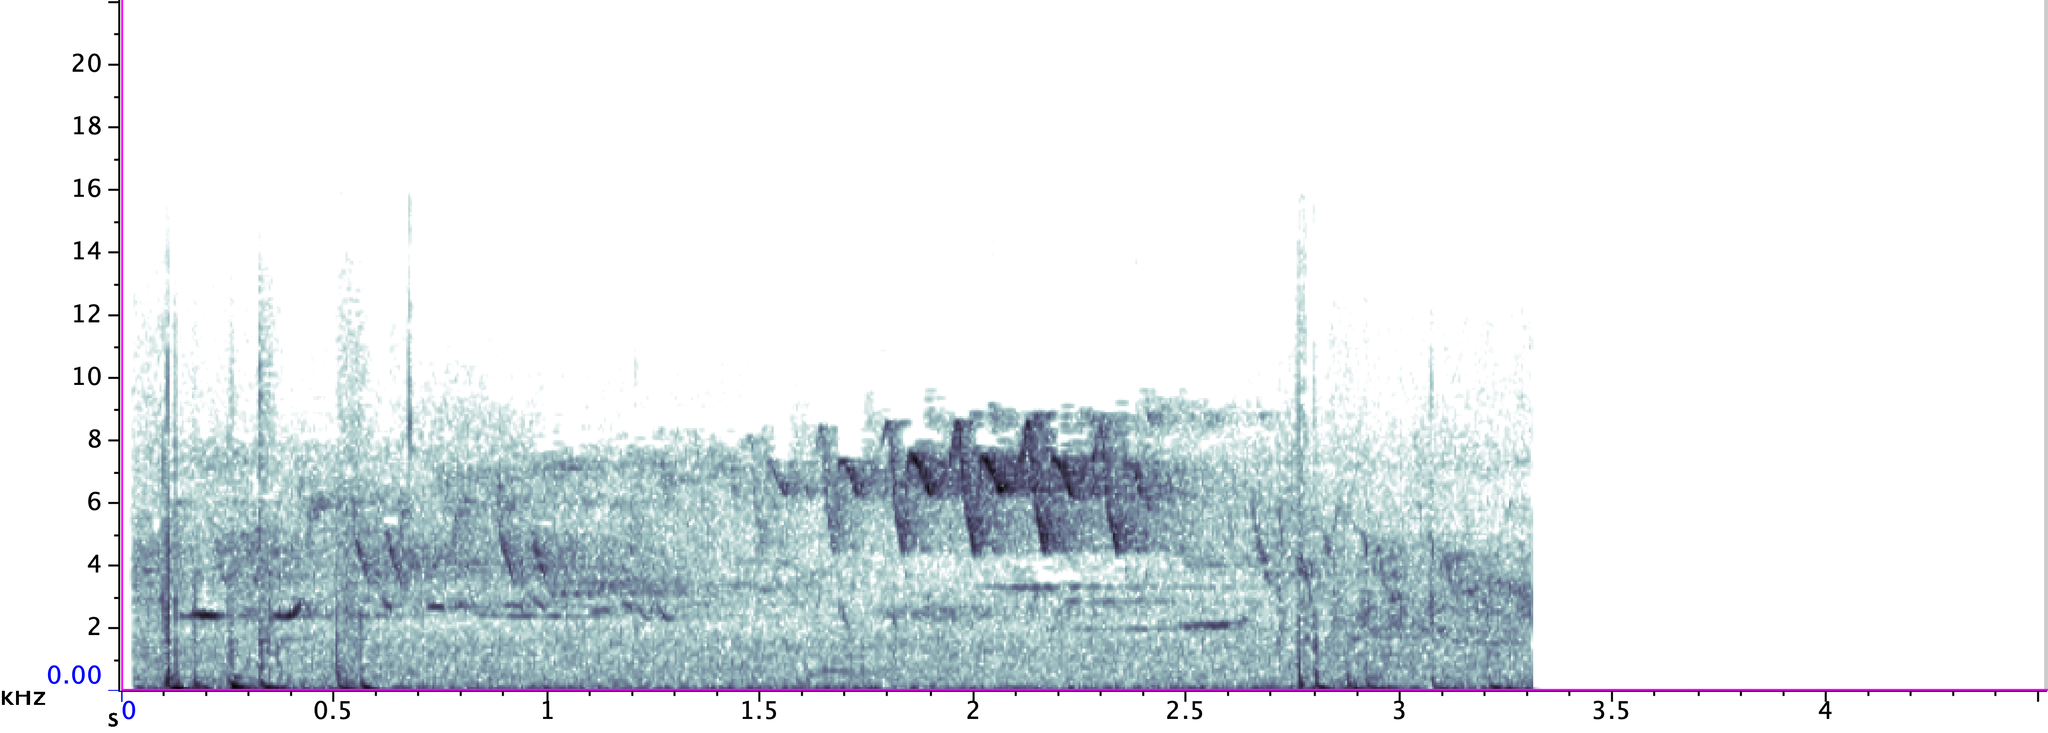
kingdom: Animalia
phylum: Chordata
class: Aves
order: Passeriformes
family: Parulidae
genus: Setophaga
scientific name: Setophaga ruticilla
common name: American redstart
